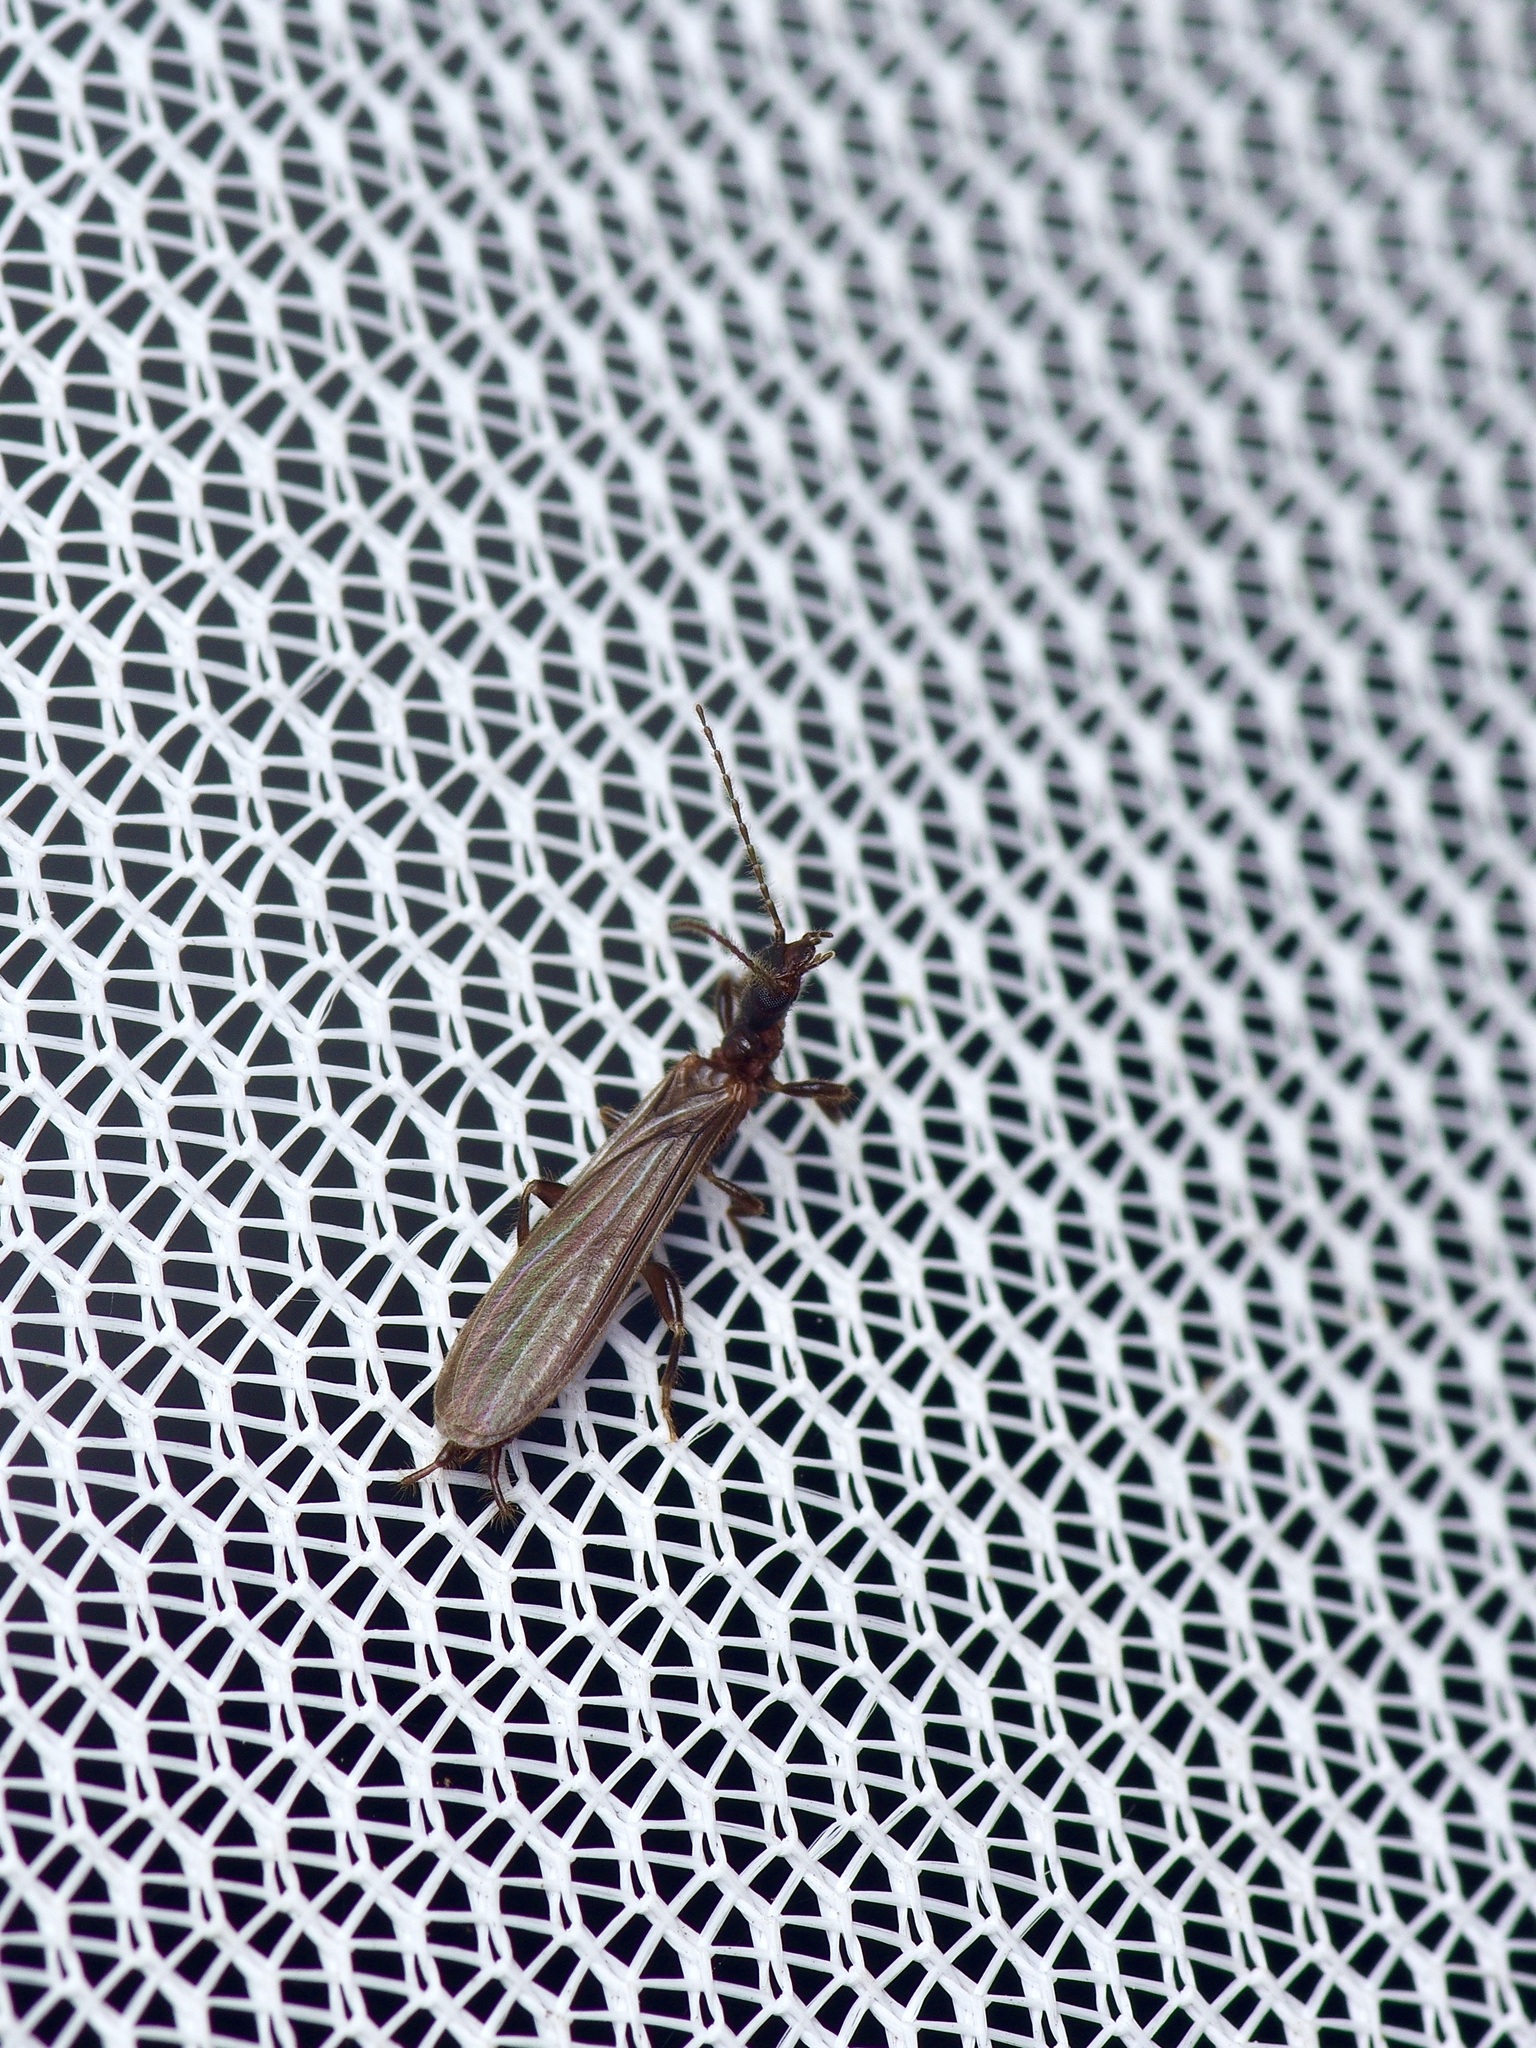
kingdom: Animalia
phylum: Arthropoda
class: Insecta
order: Embioptera
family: Oligotomidae
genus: Oligotoma
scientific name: Oligotoma nigra
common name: Black webspinner
